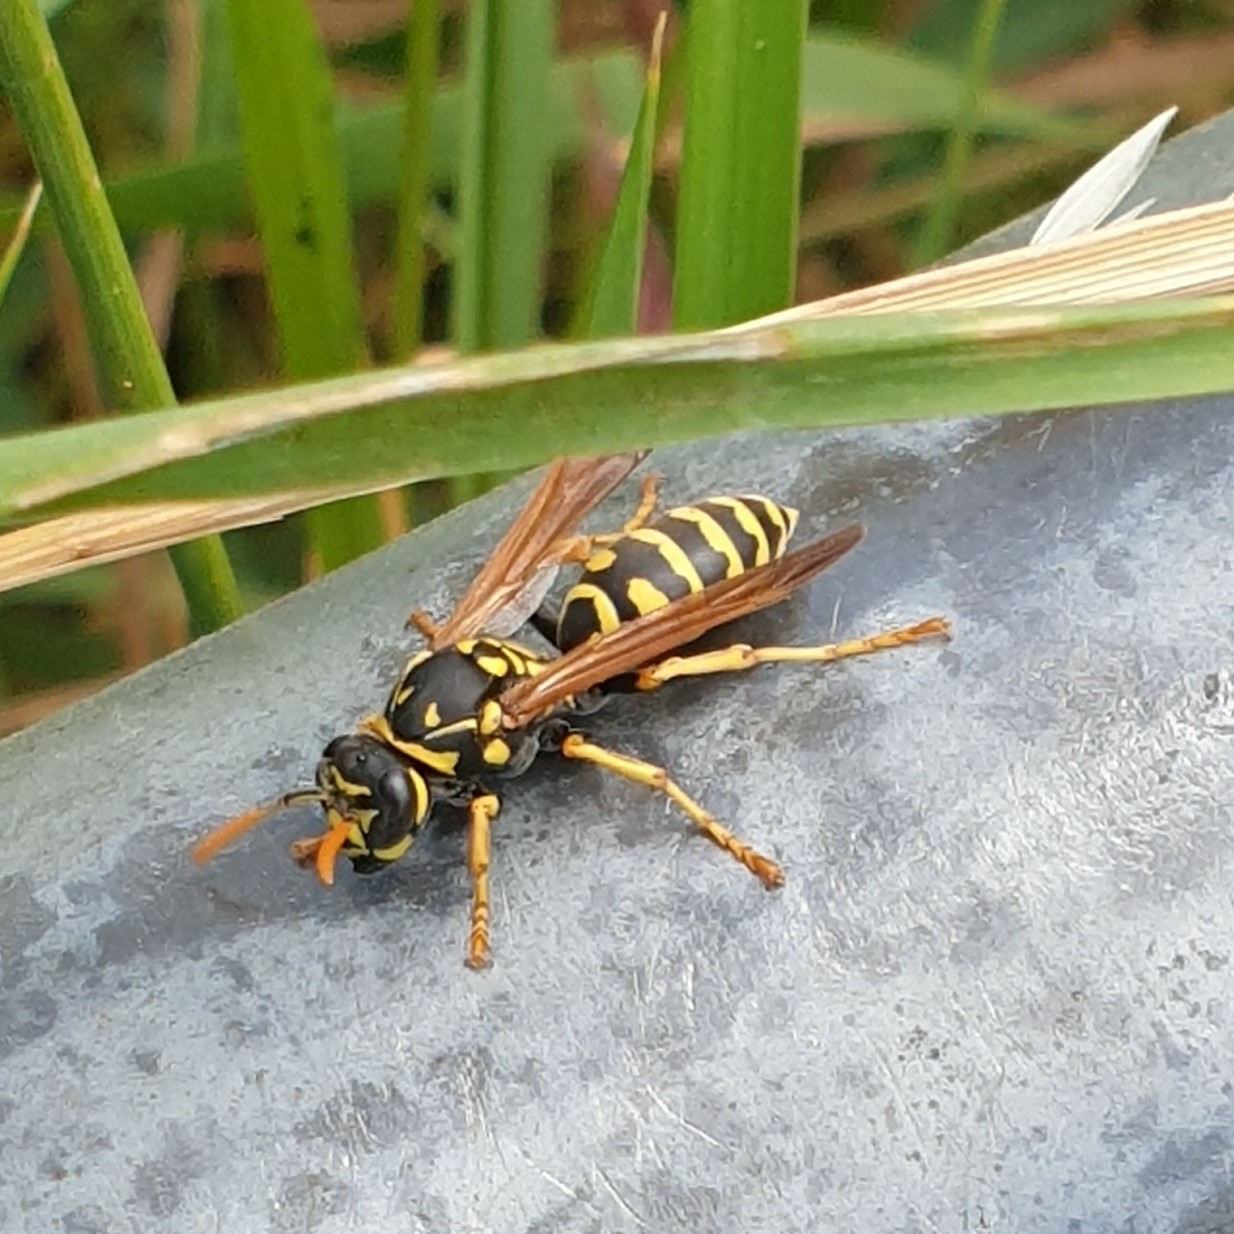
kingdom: Animalia
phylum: Arthropoda
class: Insecta
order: Hymenoptera
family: Eumenidae
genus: Polistes
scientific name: Polistes dominula
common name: Paper wasp
